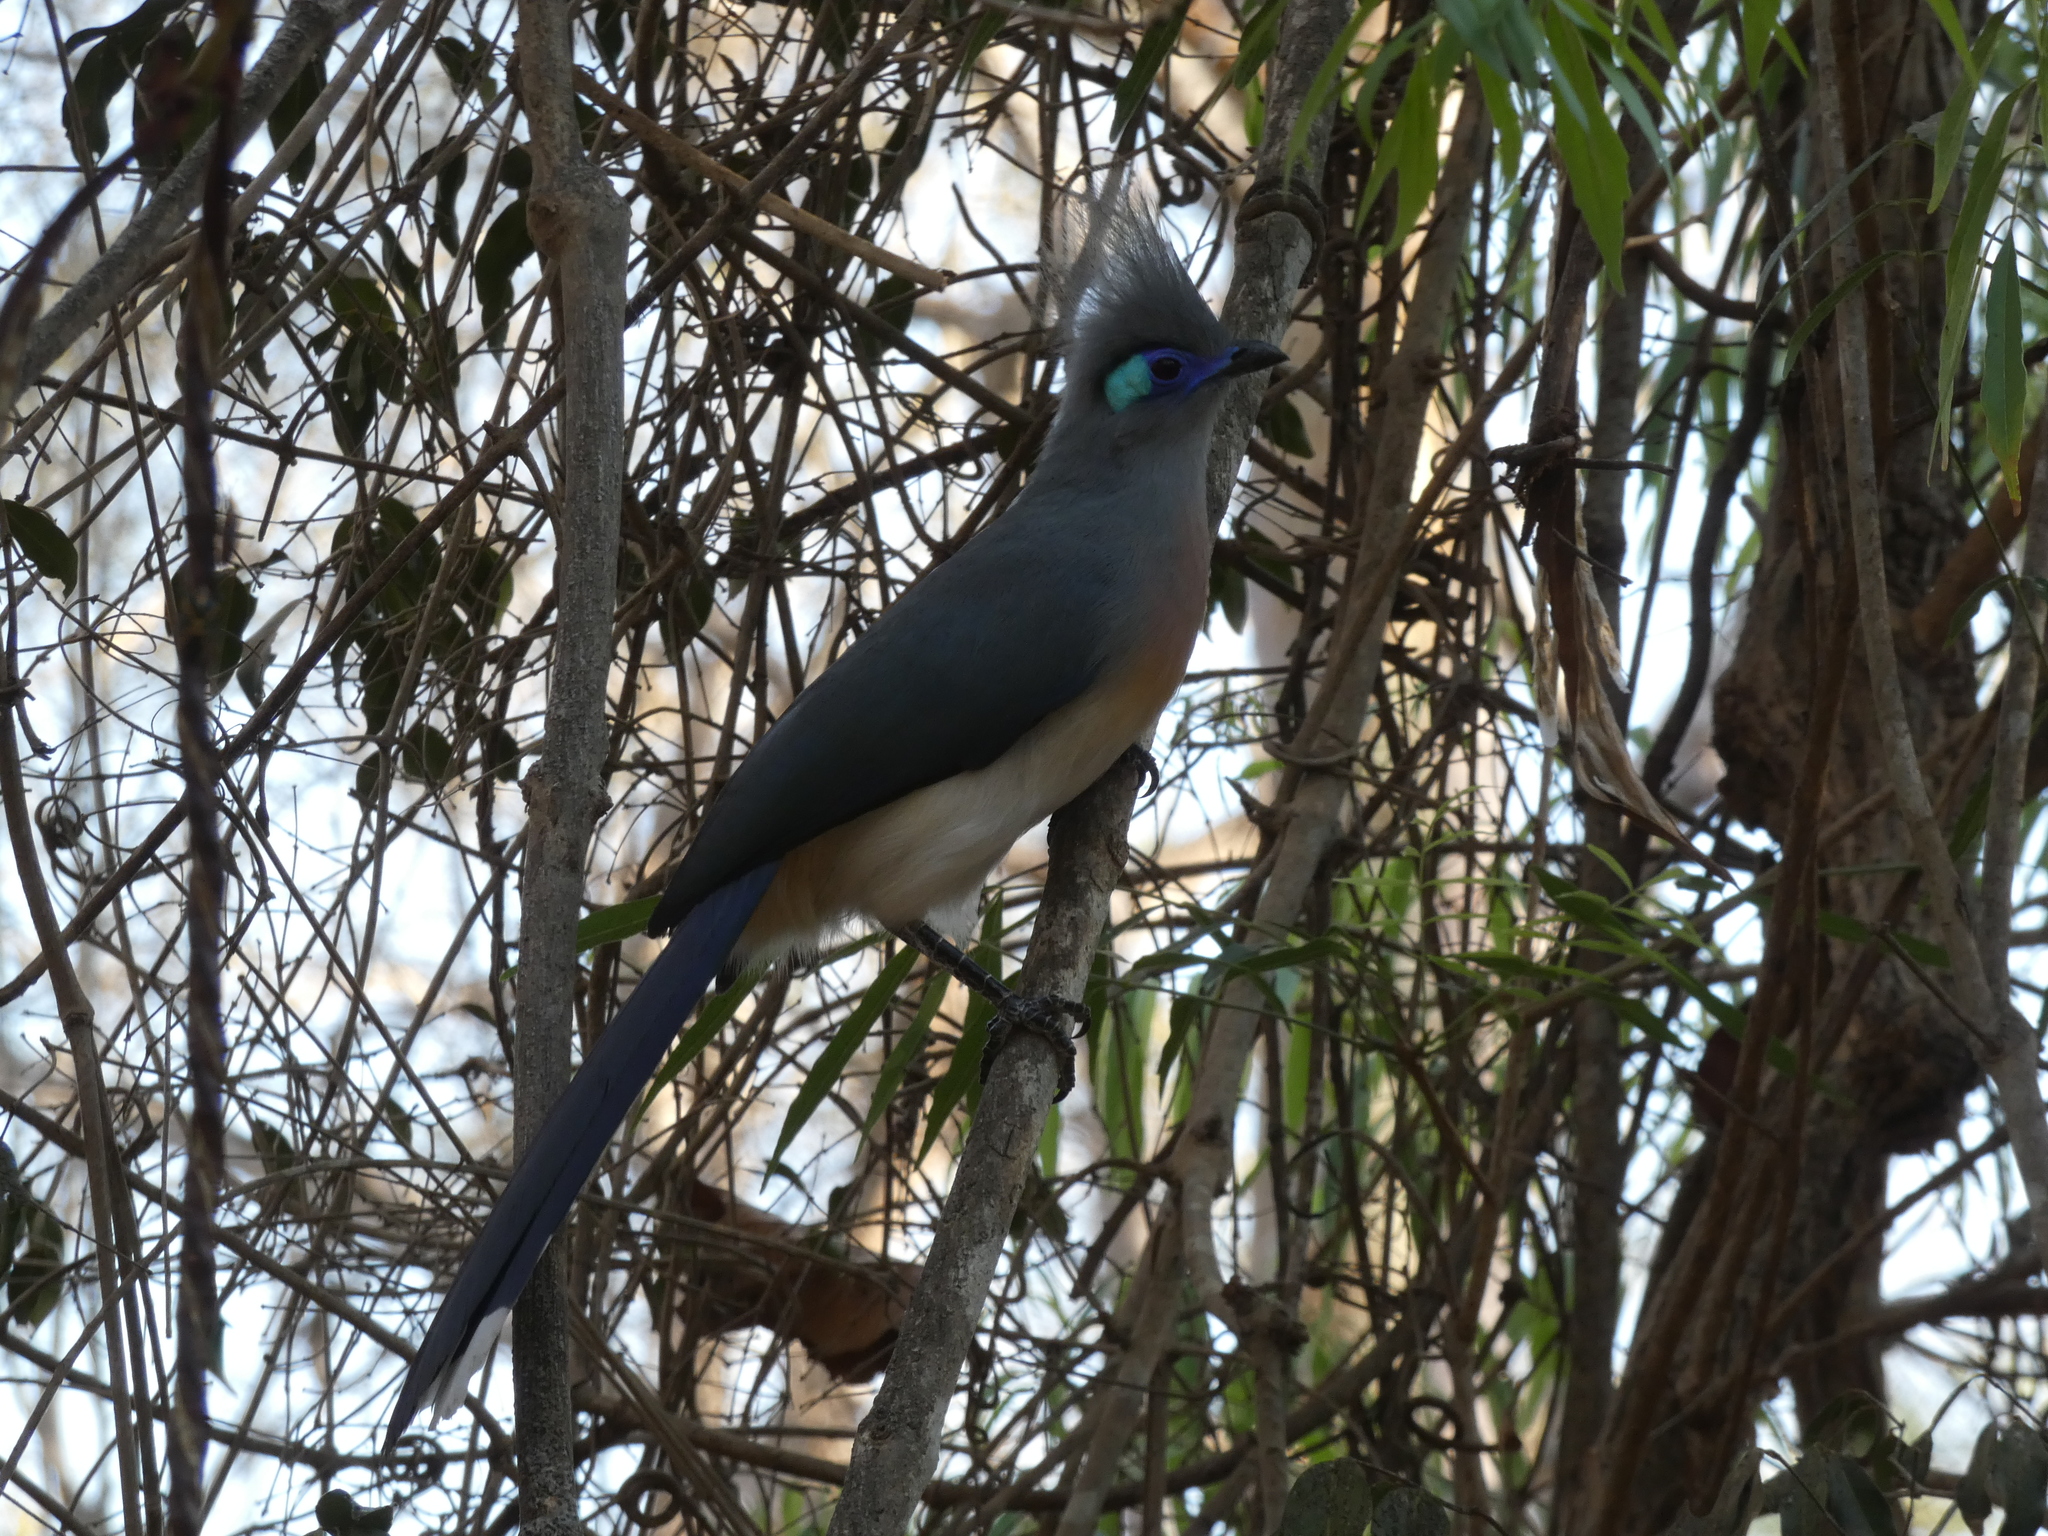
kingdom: Animalia
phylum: Chordata
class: Aves
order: Cuculiformes
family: Cuculidae
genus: Coua
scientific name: Coua cristata
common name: Crested coua
